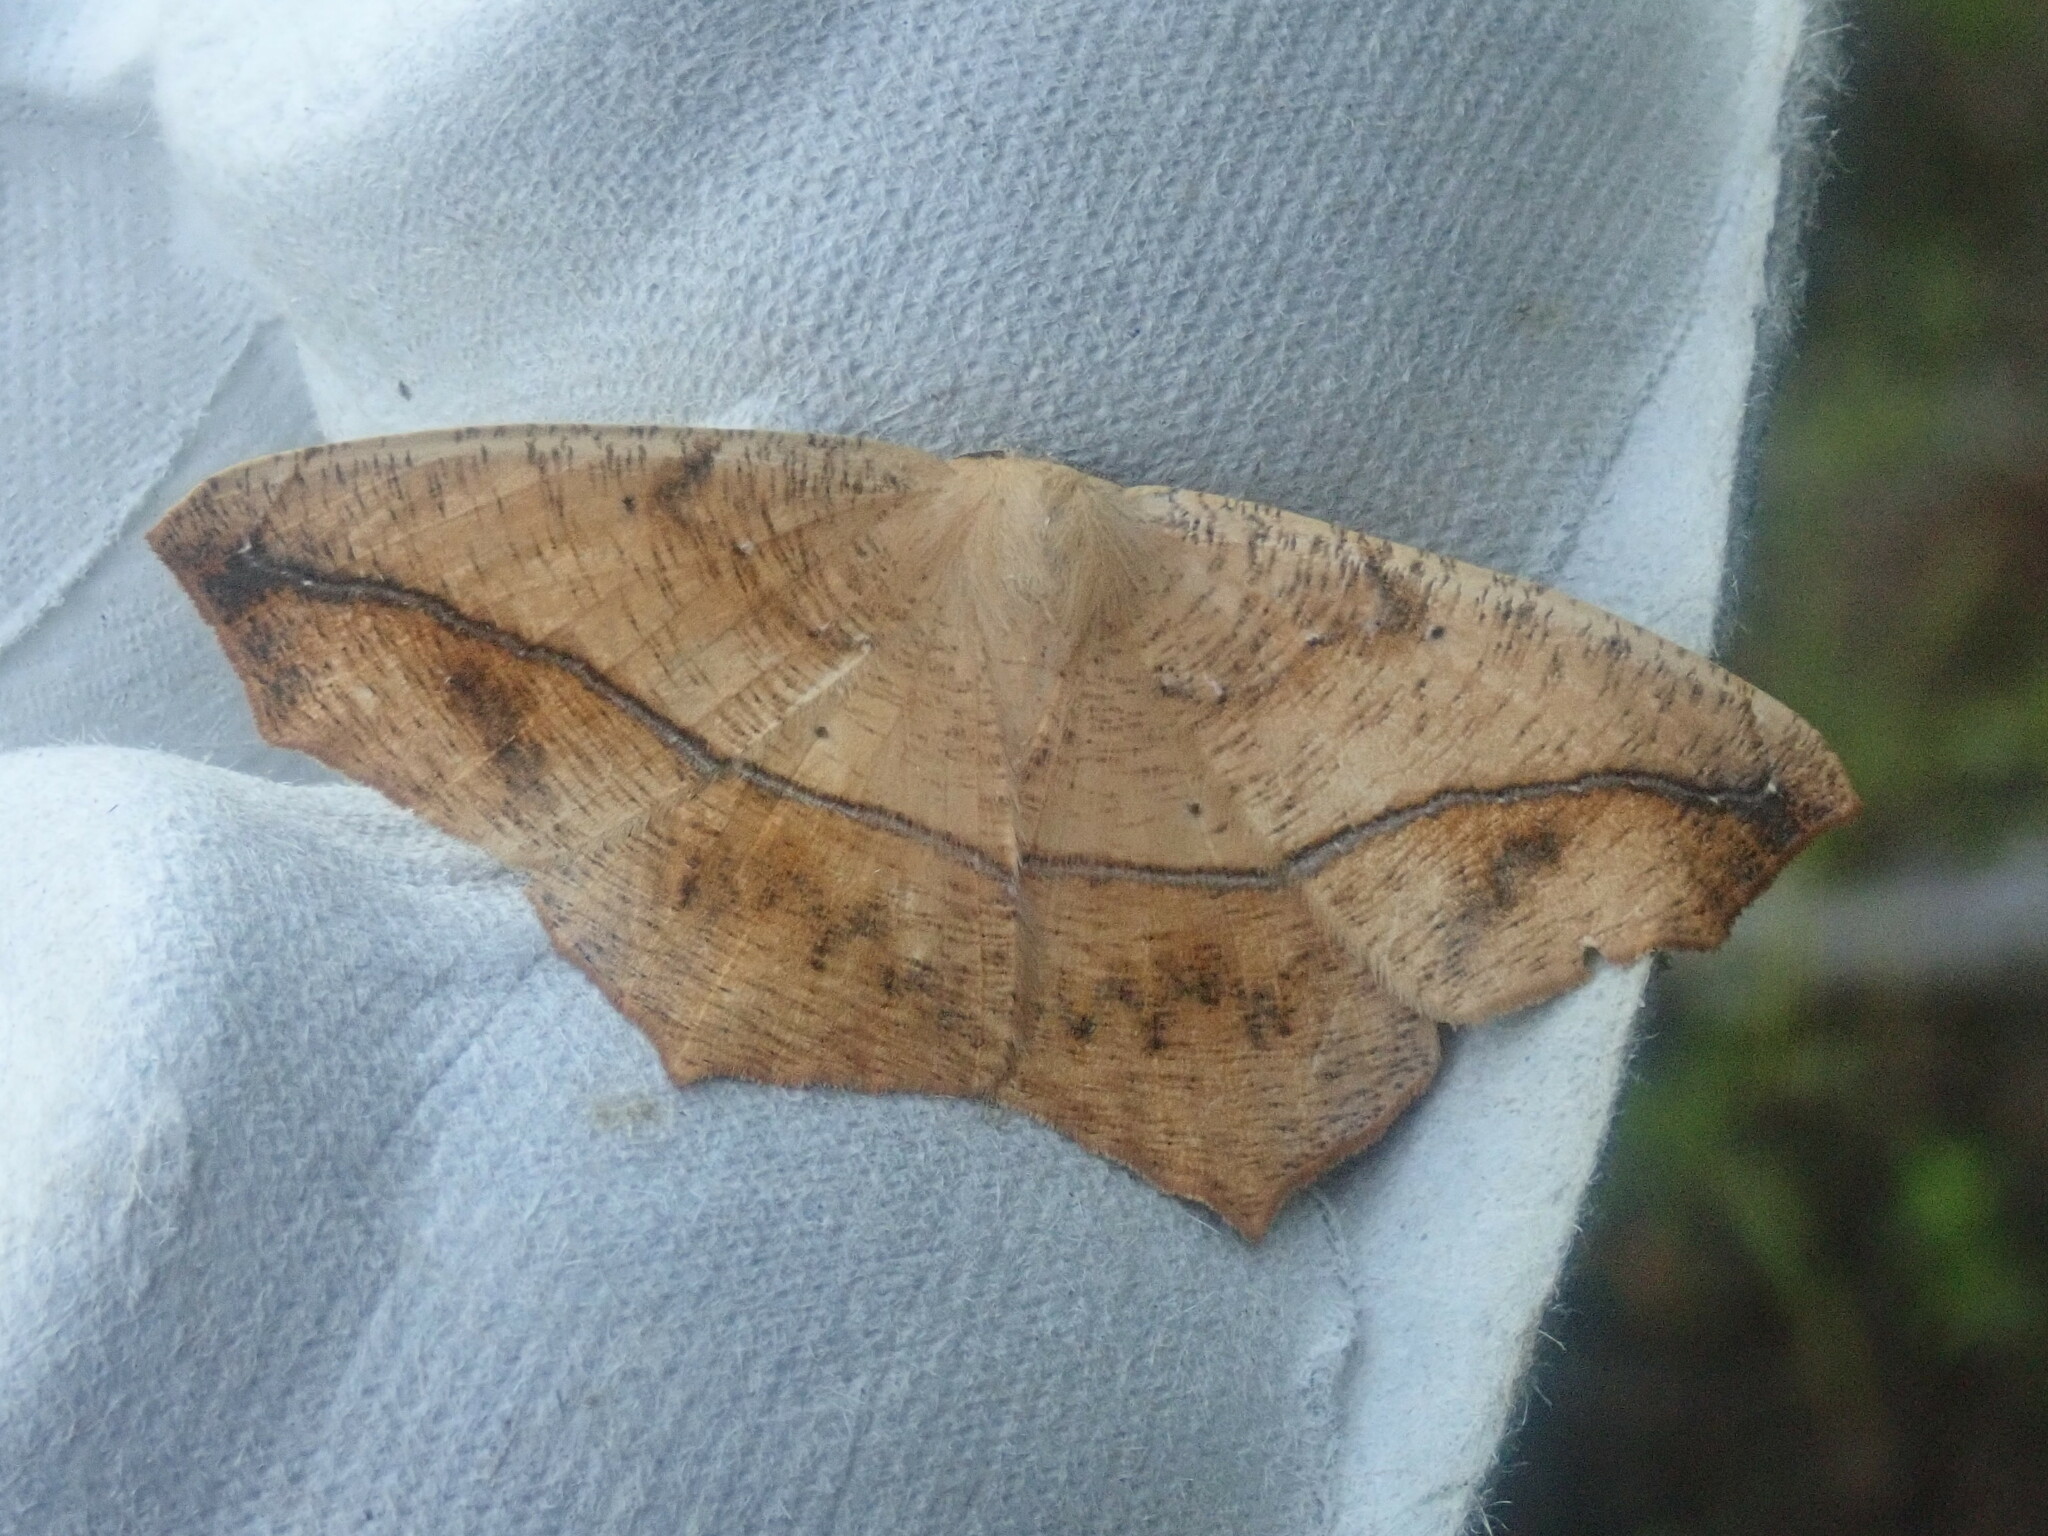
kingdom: Animalia
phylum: Arthropoda
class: Insecta
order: Lepidoptera
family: Geometridae
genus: Prochoerodes
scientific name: Prochoerodes lineola
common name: Large maple spanworm
